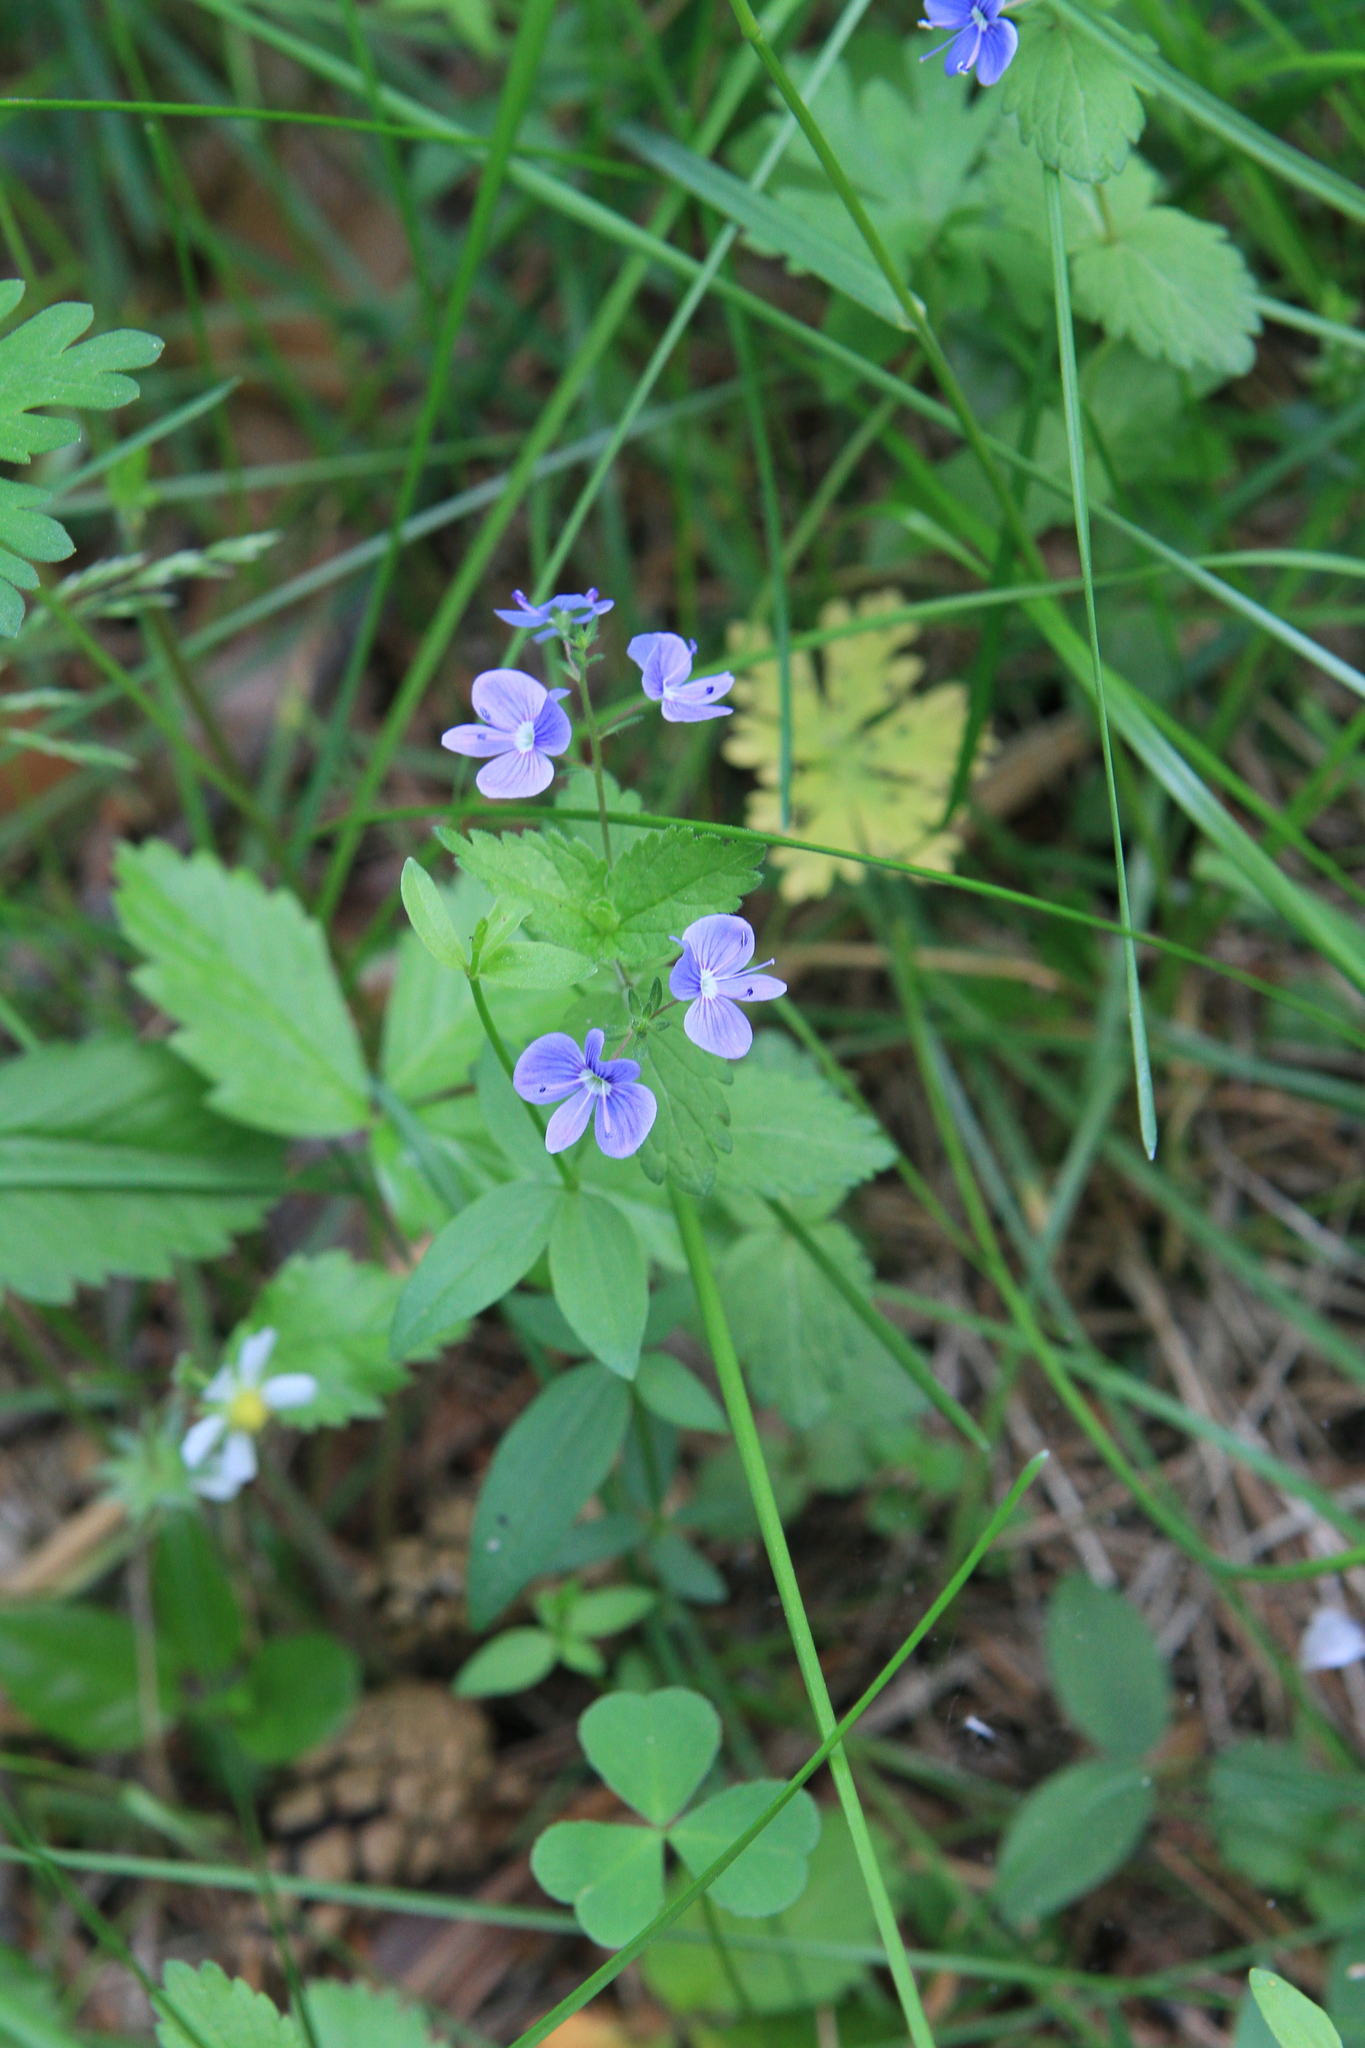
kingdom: Plantae
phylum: Tracheophyta
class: Magnoliopsida
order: Lamiales
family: Plantaginaceae
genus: Veronica
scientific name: Veronica chamaedrys
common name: Germander speedwell
